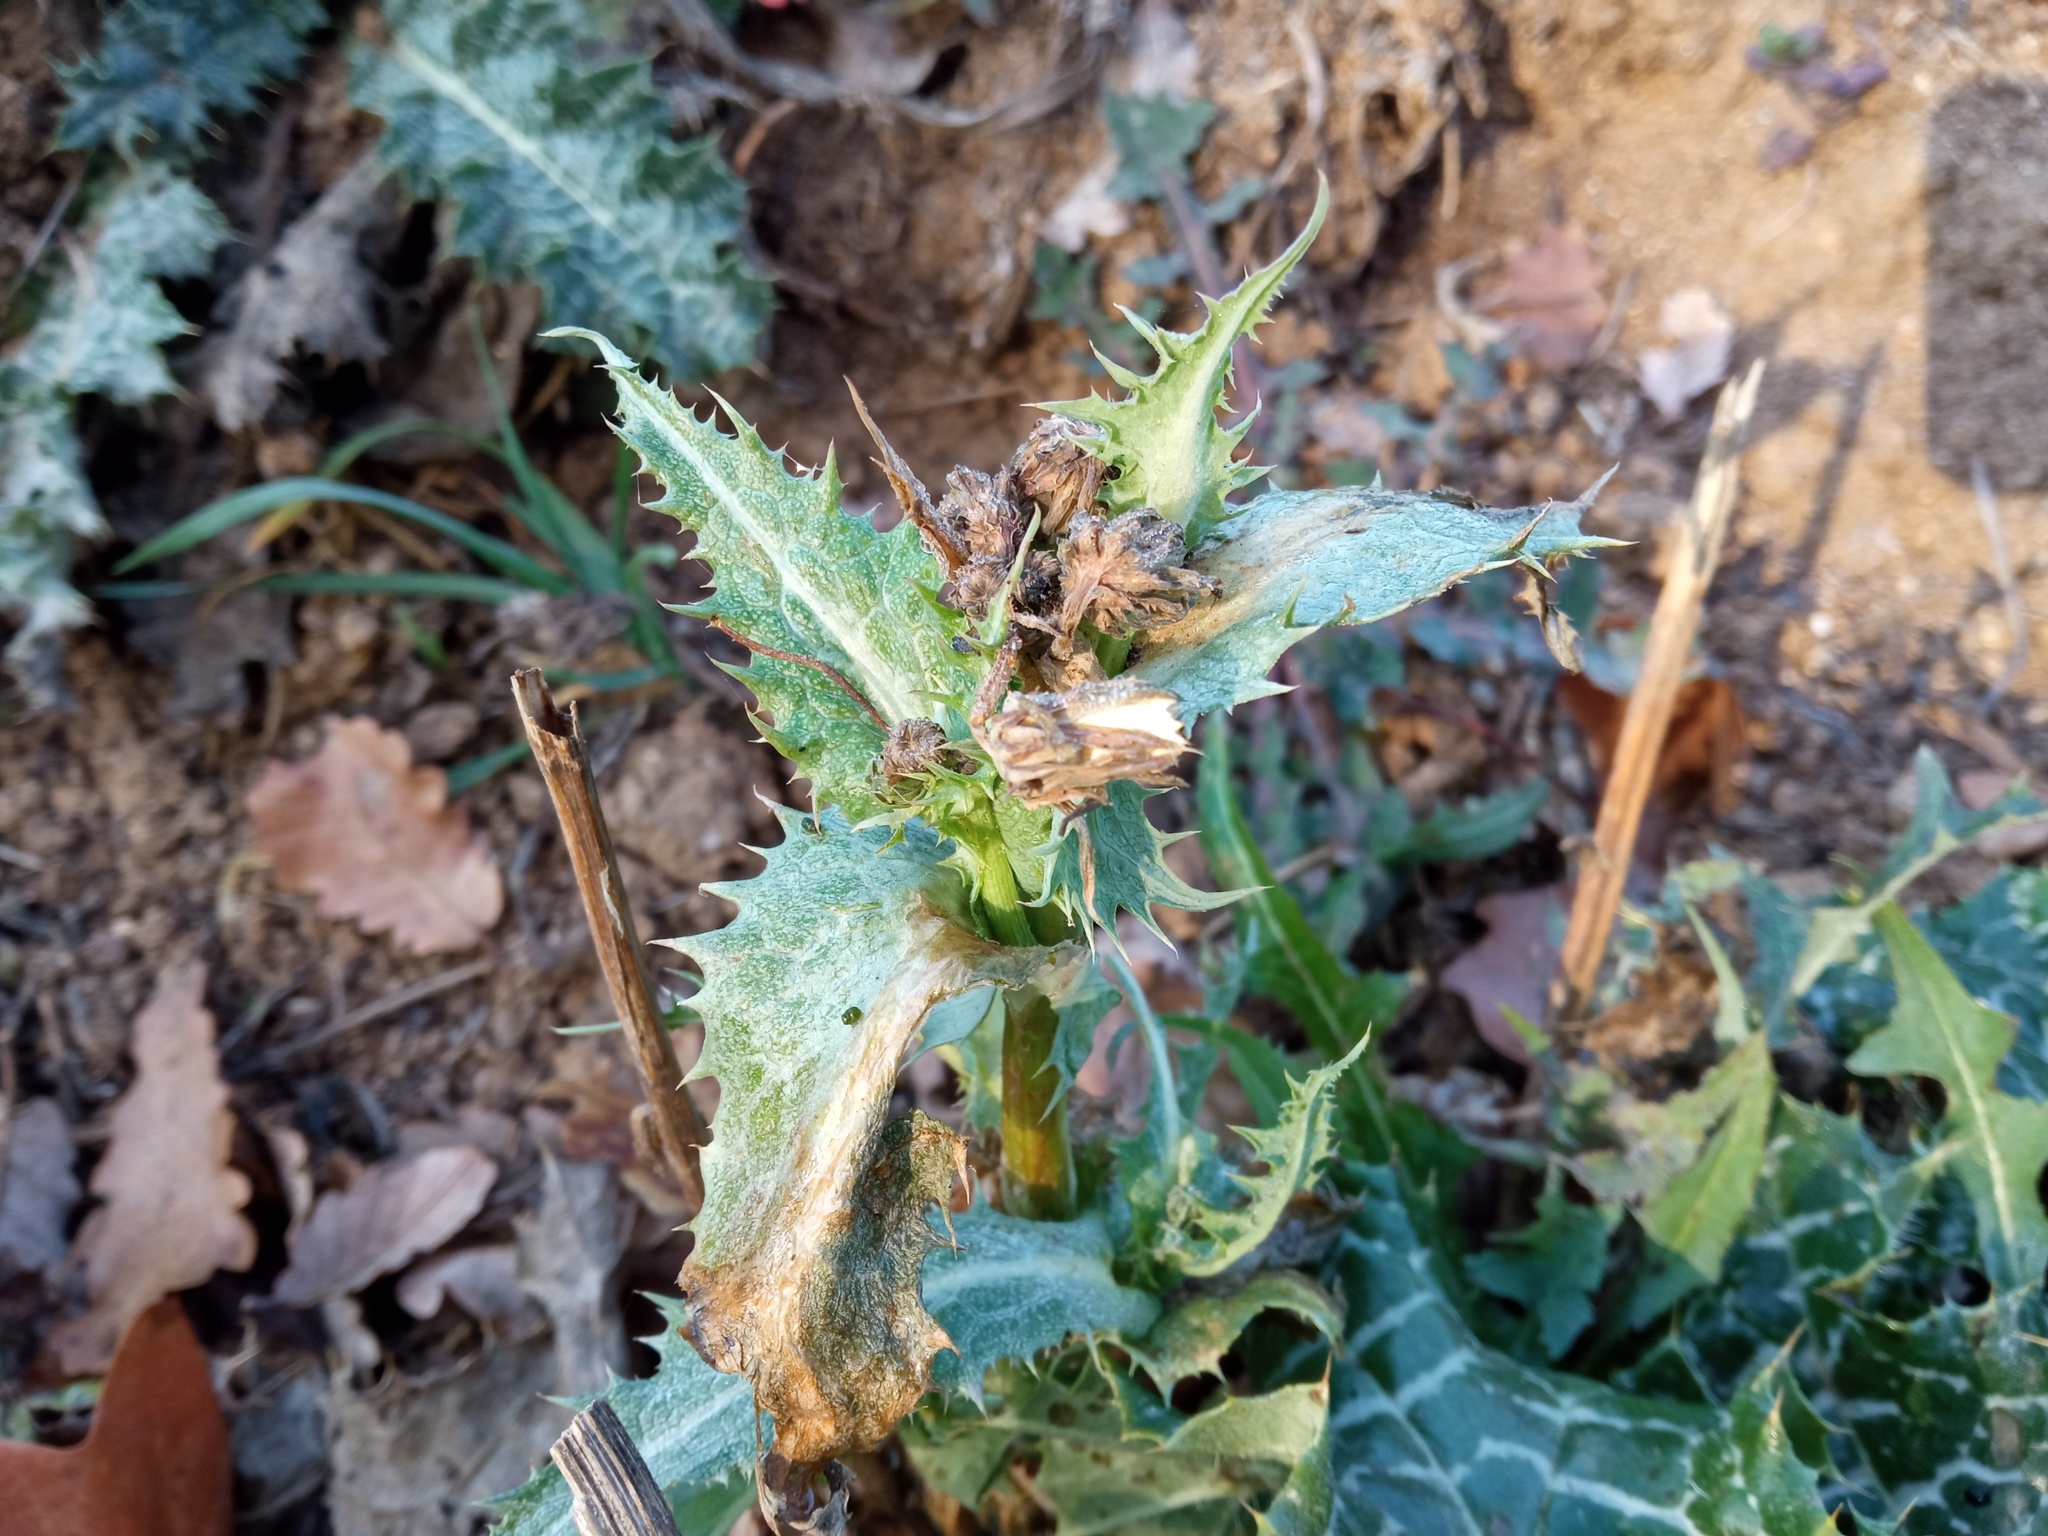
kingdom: Plantae
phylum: Tracheophyta
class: Magnoliopsida
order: Asterales
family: Asteraceae
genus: Sonchus
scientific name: Sonchus asper
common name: Prickly sow-thistle
